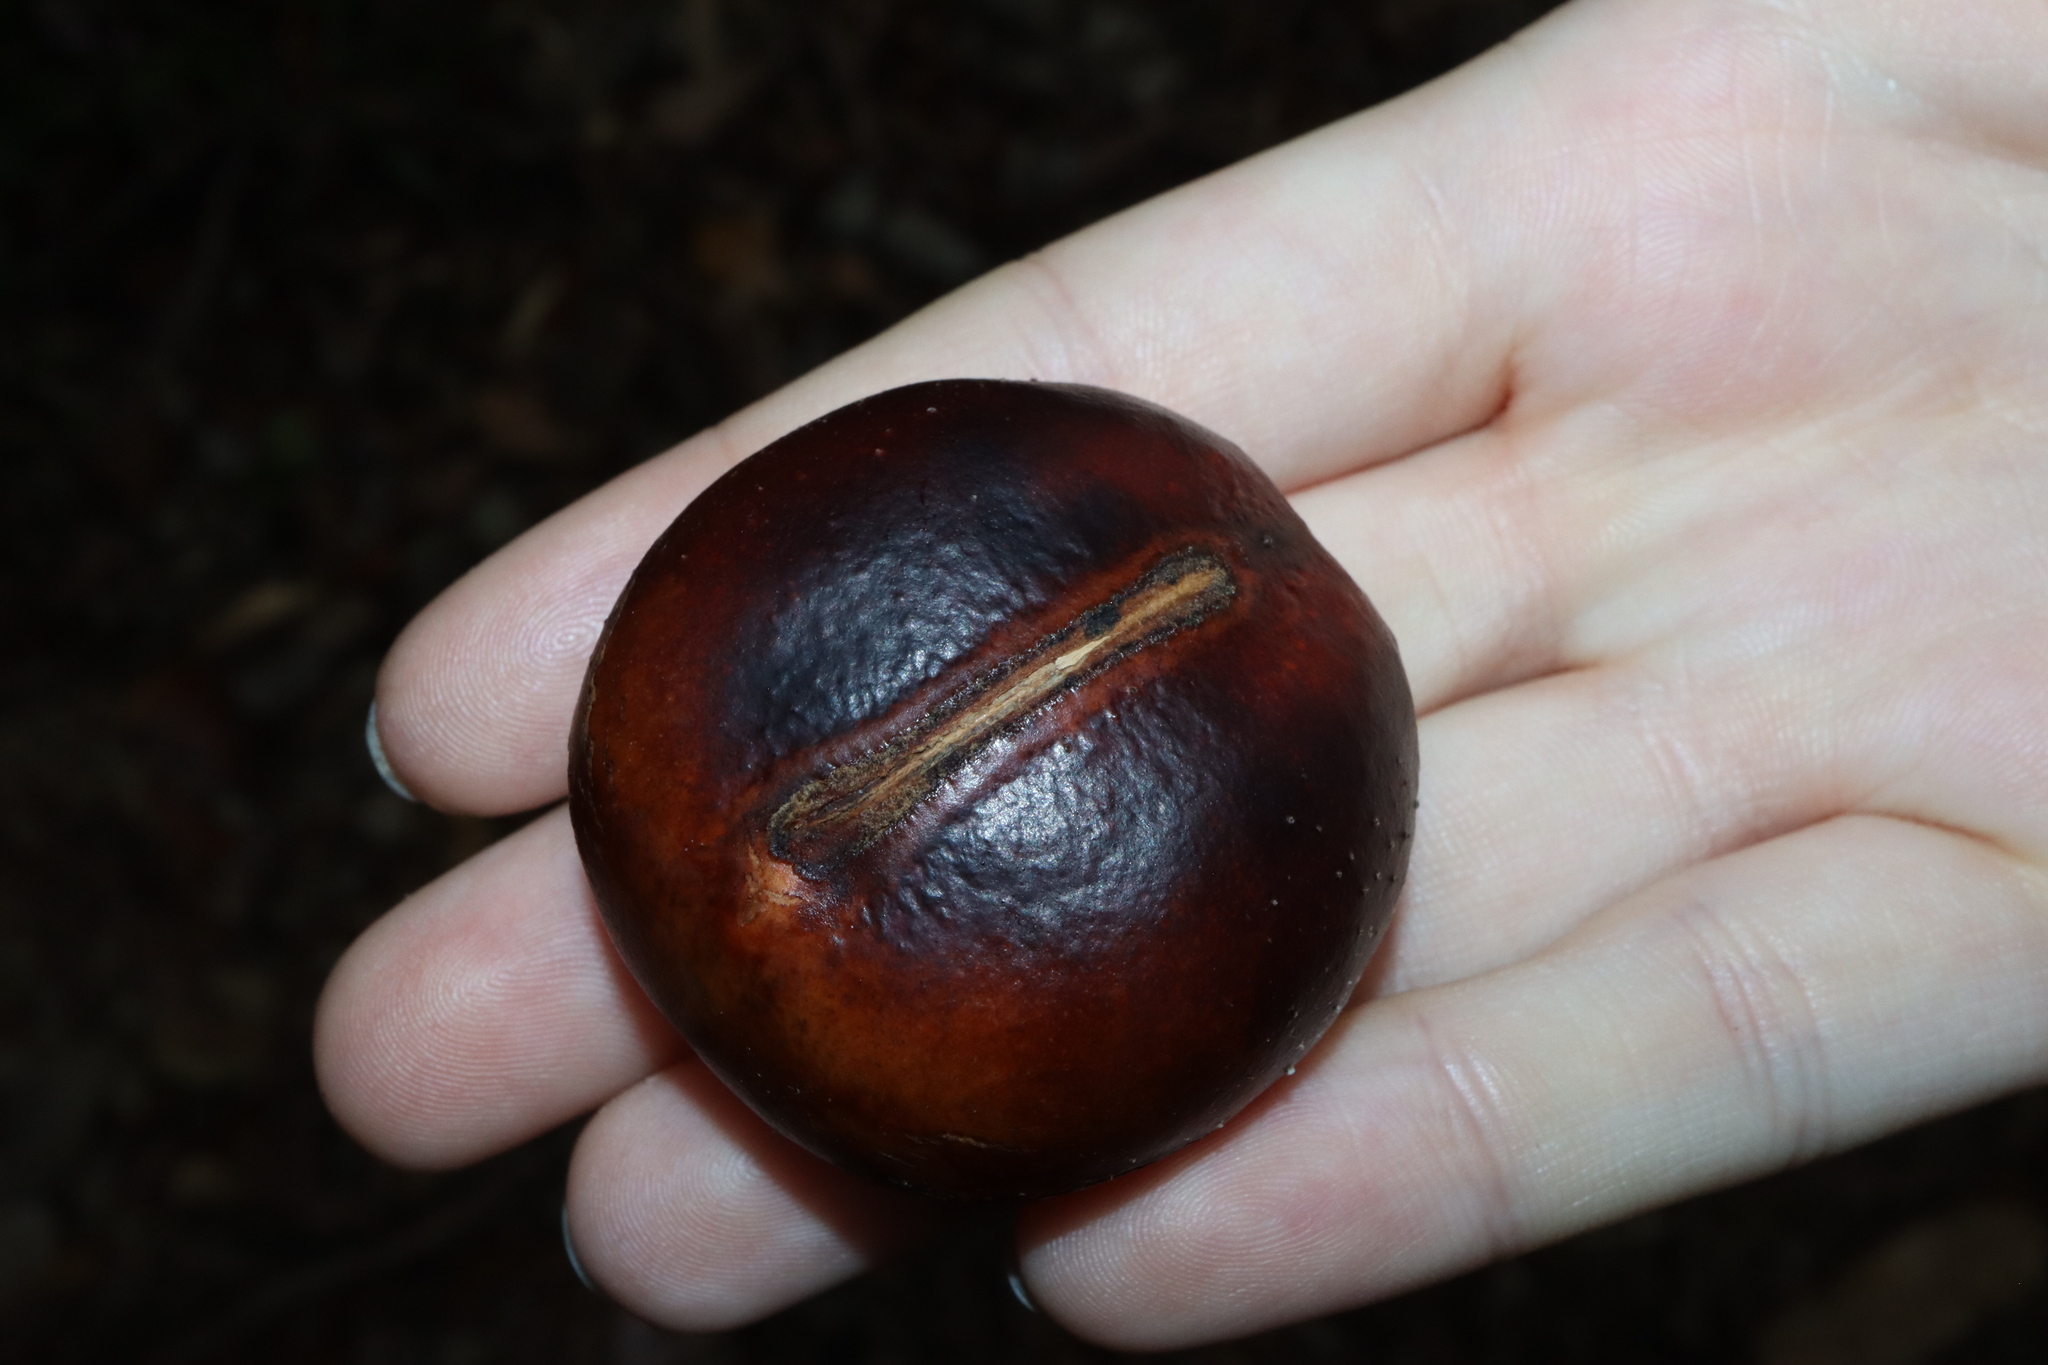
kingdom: Plantae
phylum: Tracheophyta
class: Magnoliopsida
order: Fabales
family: Fabaceae
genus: Castanospermum
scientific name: Castanospermum australe
